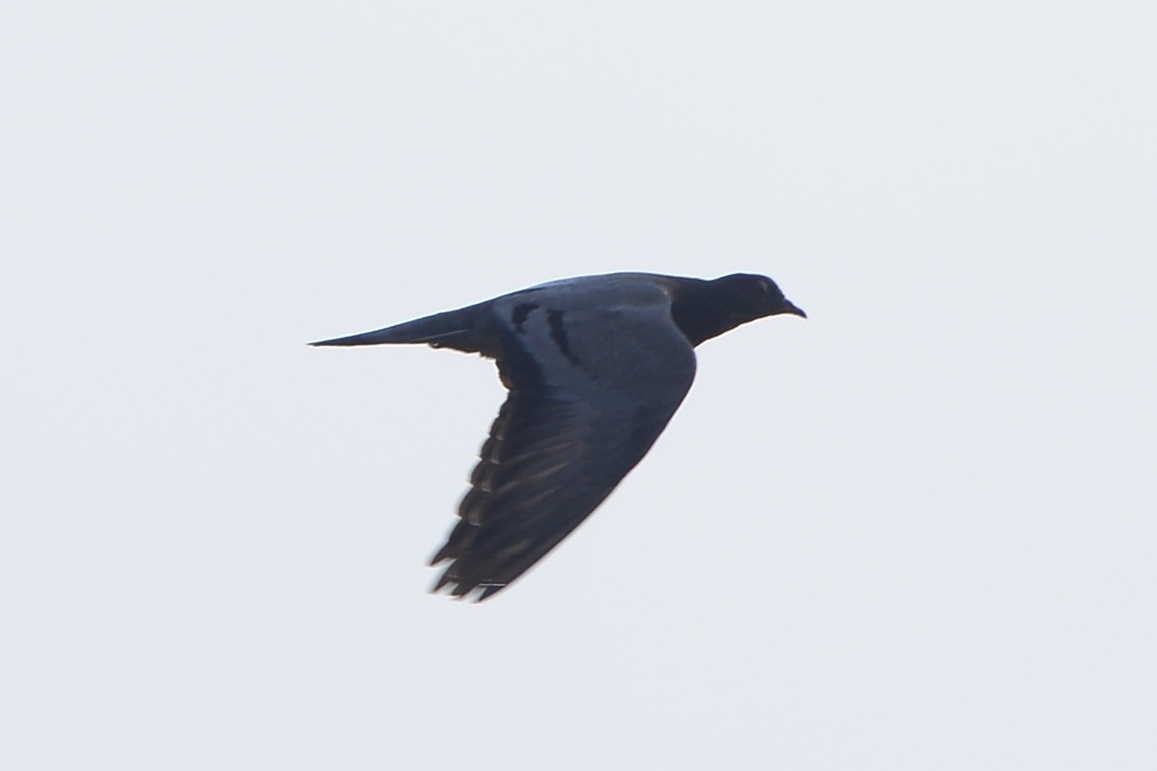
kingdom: Animalia
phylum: Chordata
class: Aves
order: Columbiformes
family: Columbidae
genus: Columba
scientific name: Columba livia
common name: Rock pigeon
